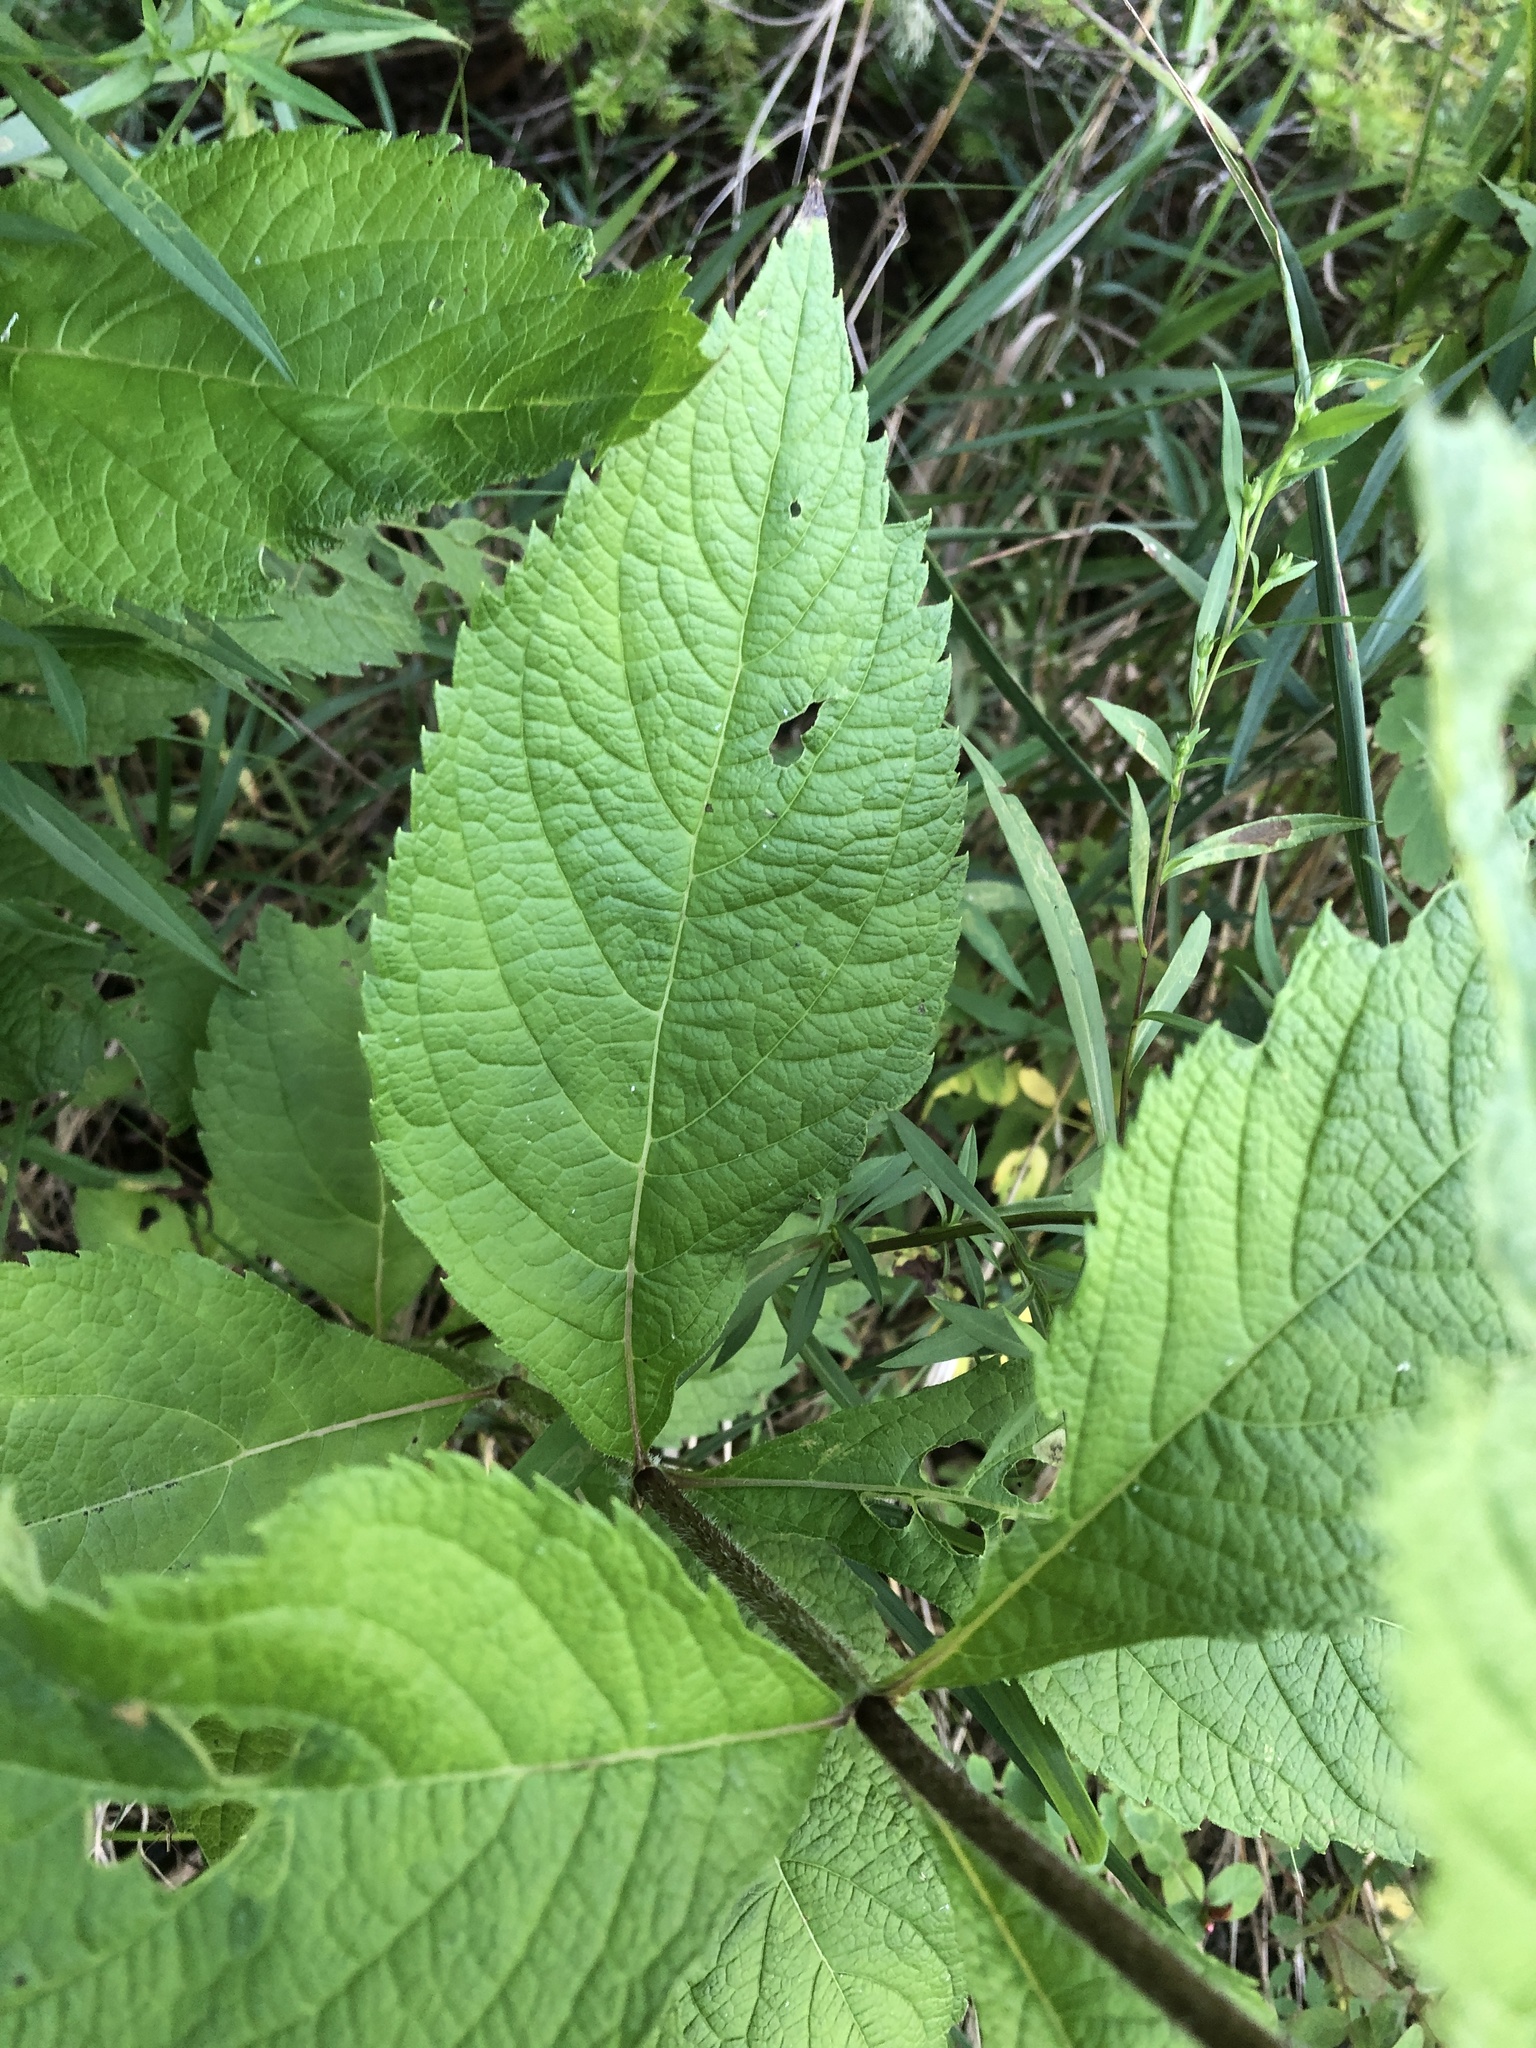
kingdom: Plantae
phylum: Tracheophyta
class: Magnoliopsida
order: Asterales
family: Asteraceae
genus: Eutrochium
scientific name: Eutrochium maculatum
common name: Spotted joe pye weed
